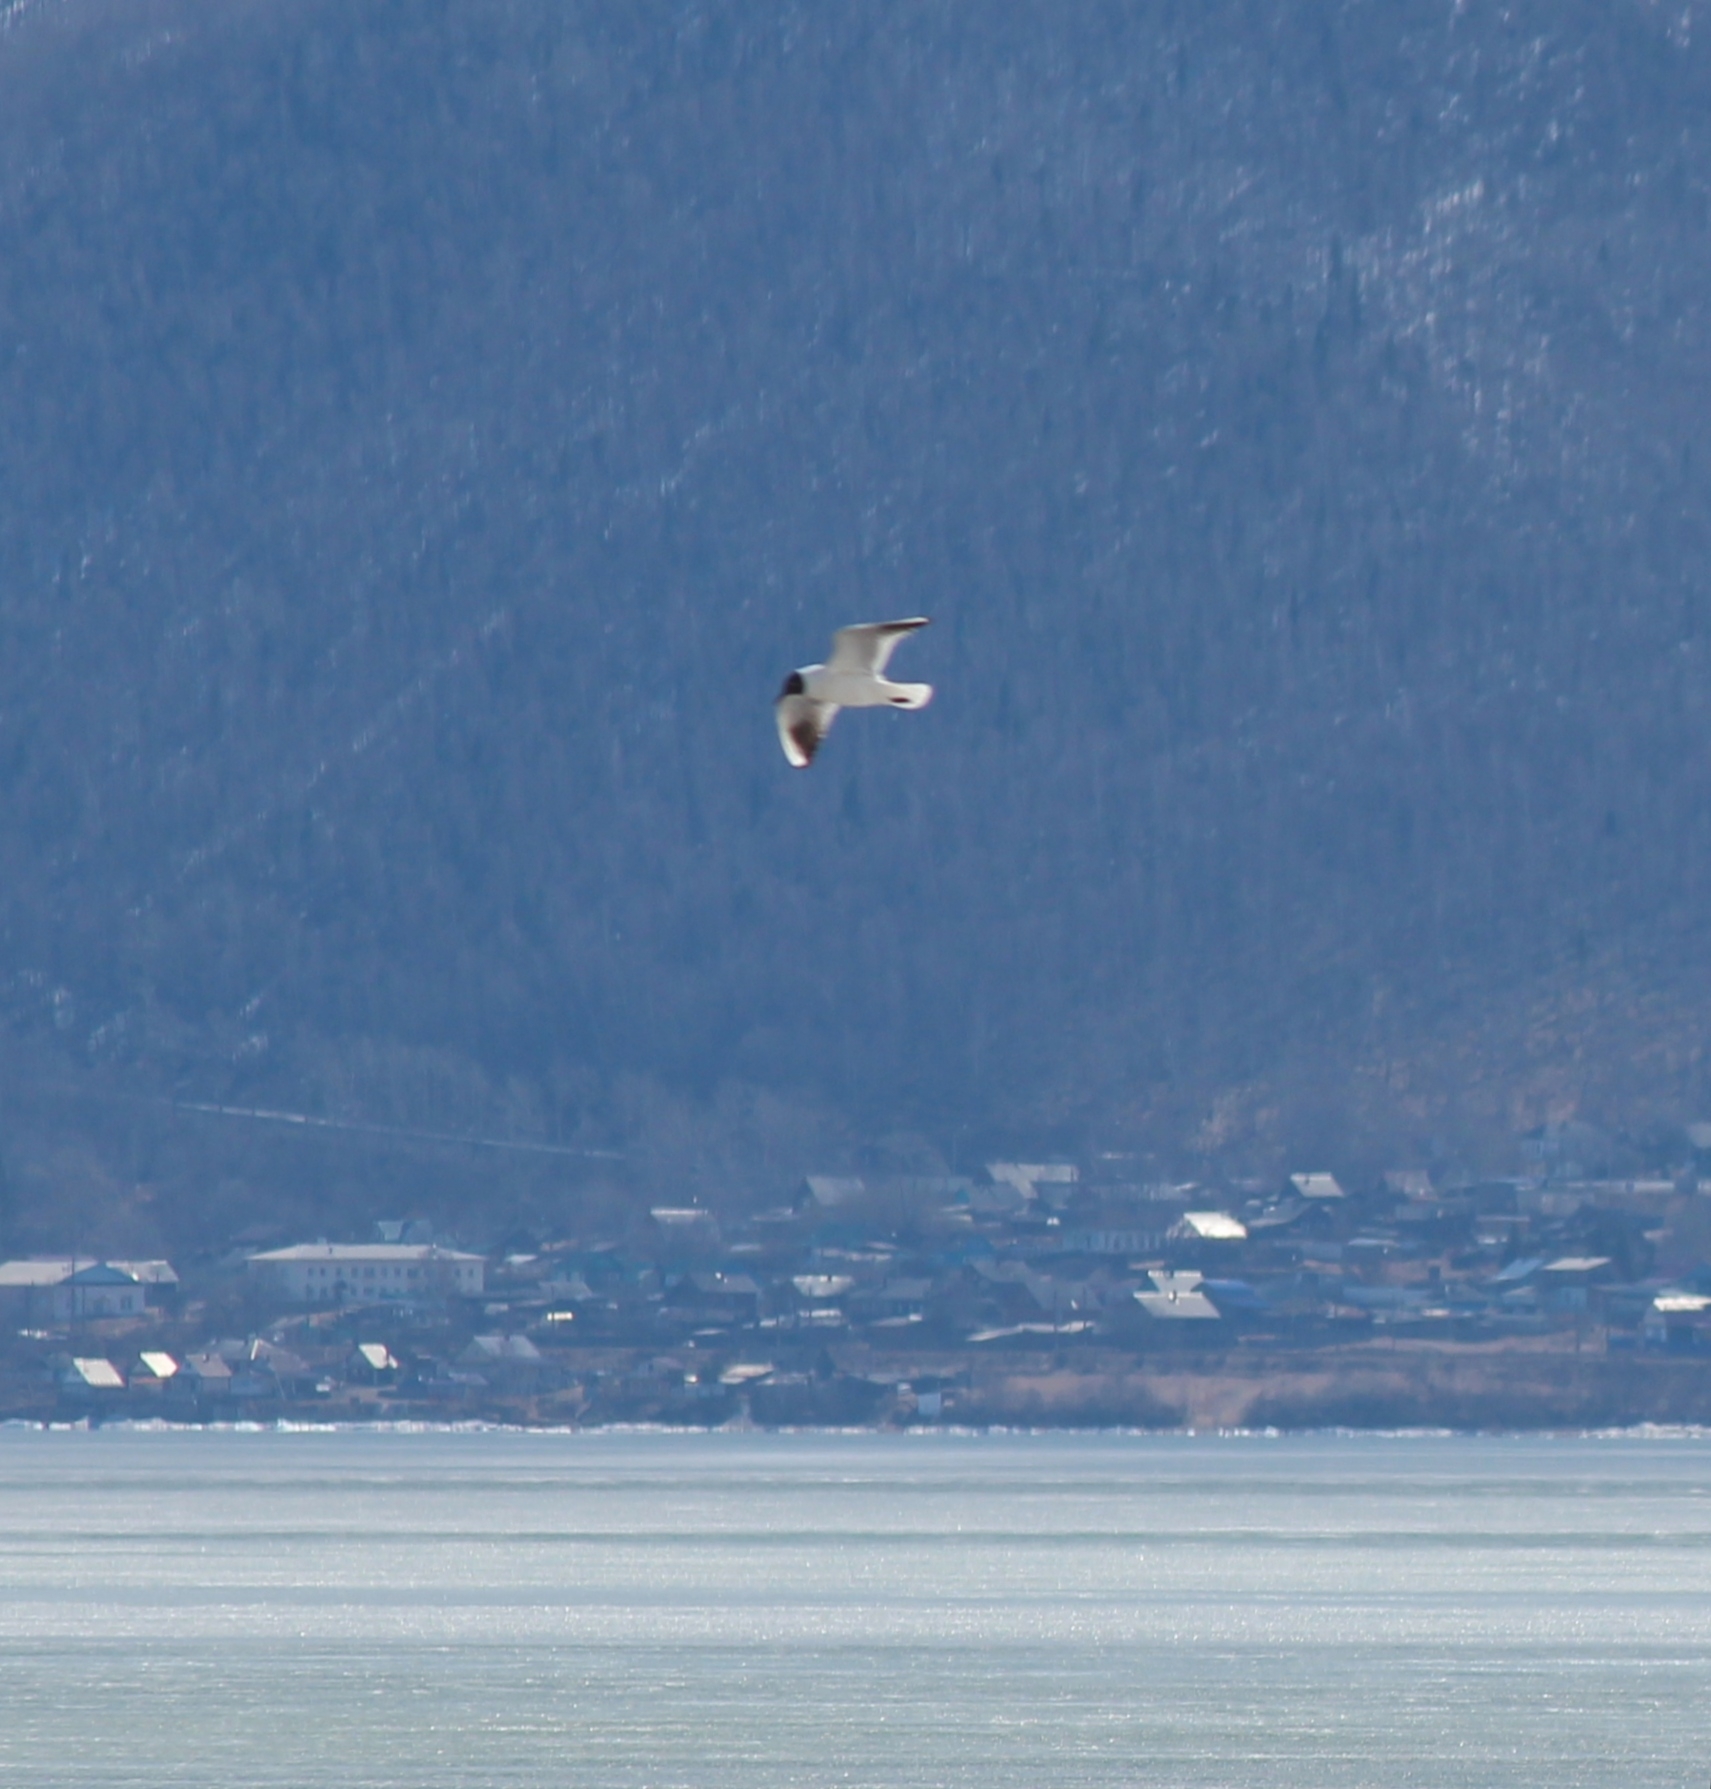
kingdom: Animalia
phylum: Chordata
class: Aves
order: Charadriiformes
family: Laridae
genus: Chroicocephalus
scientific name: Chroicocephalus ridibundus
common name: Black-headed gull
